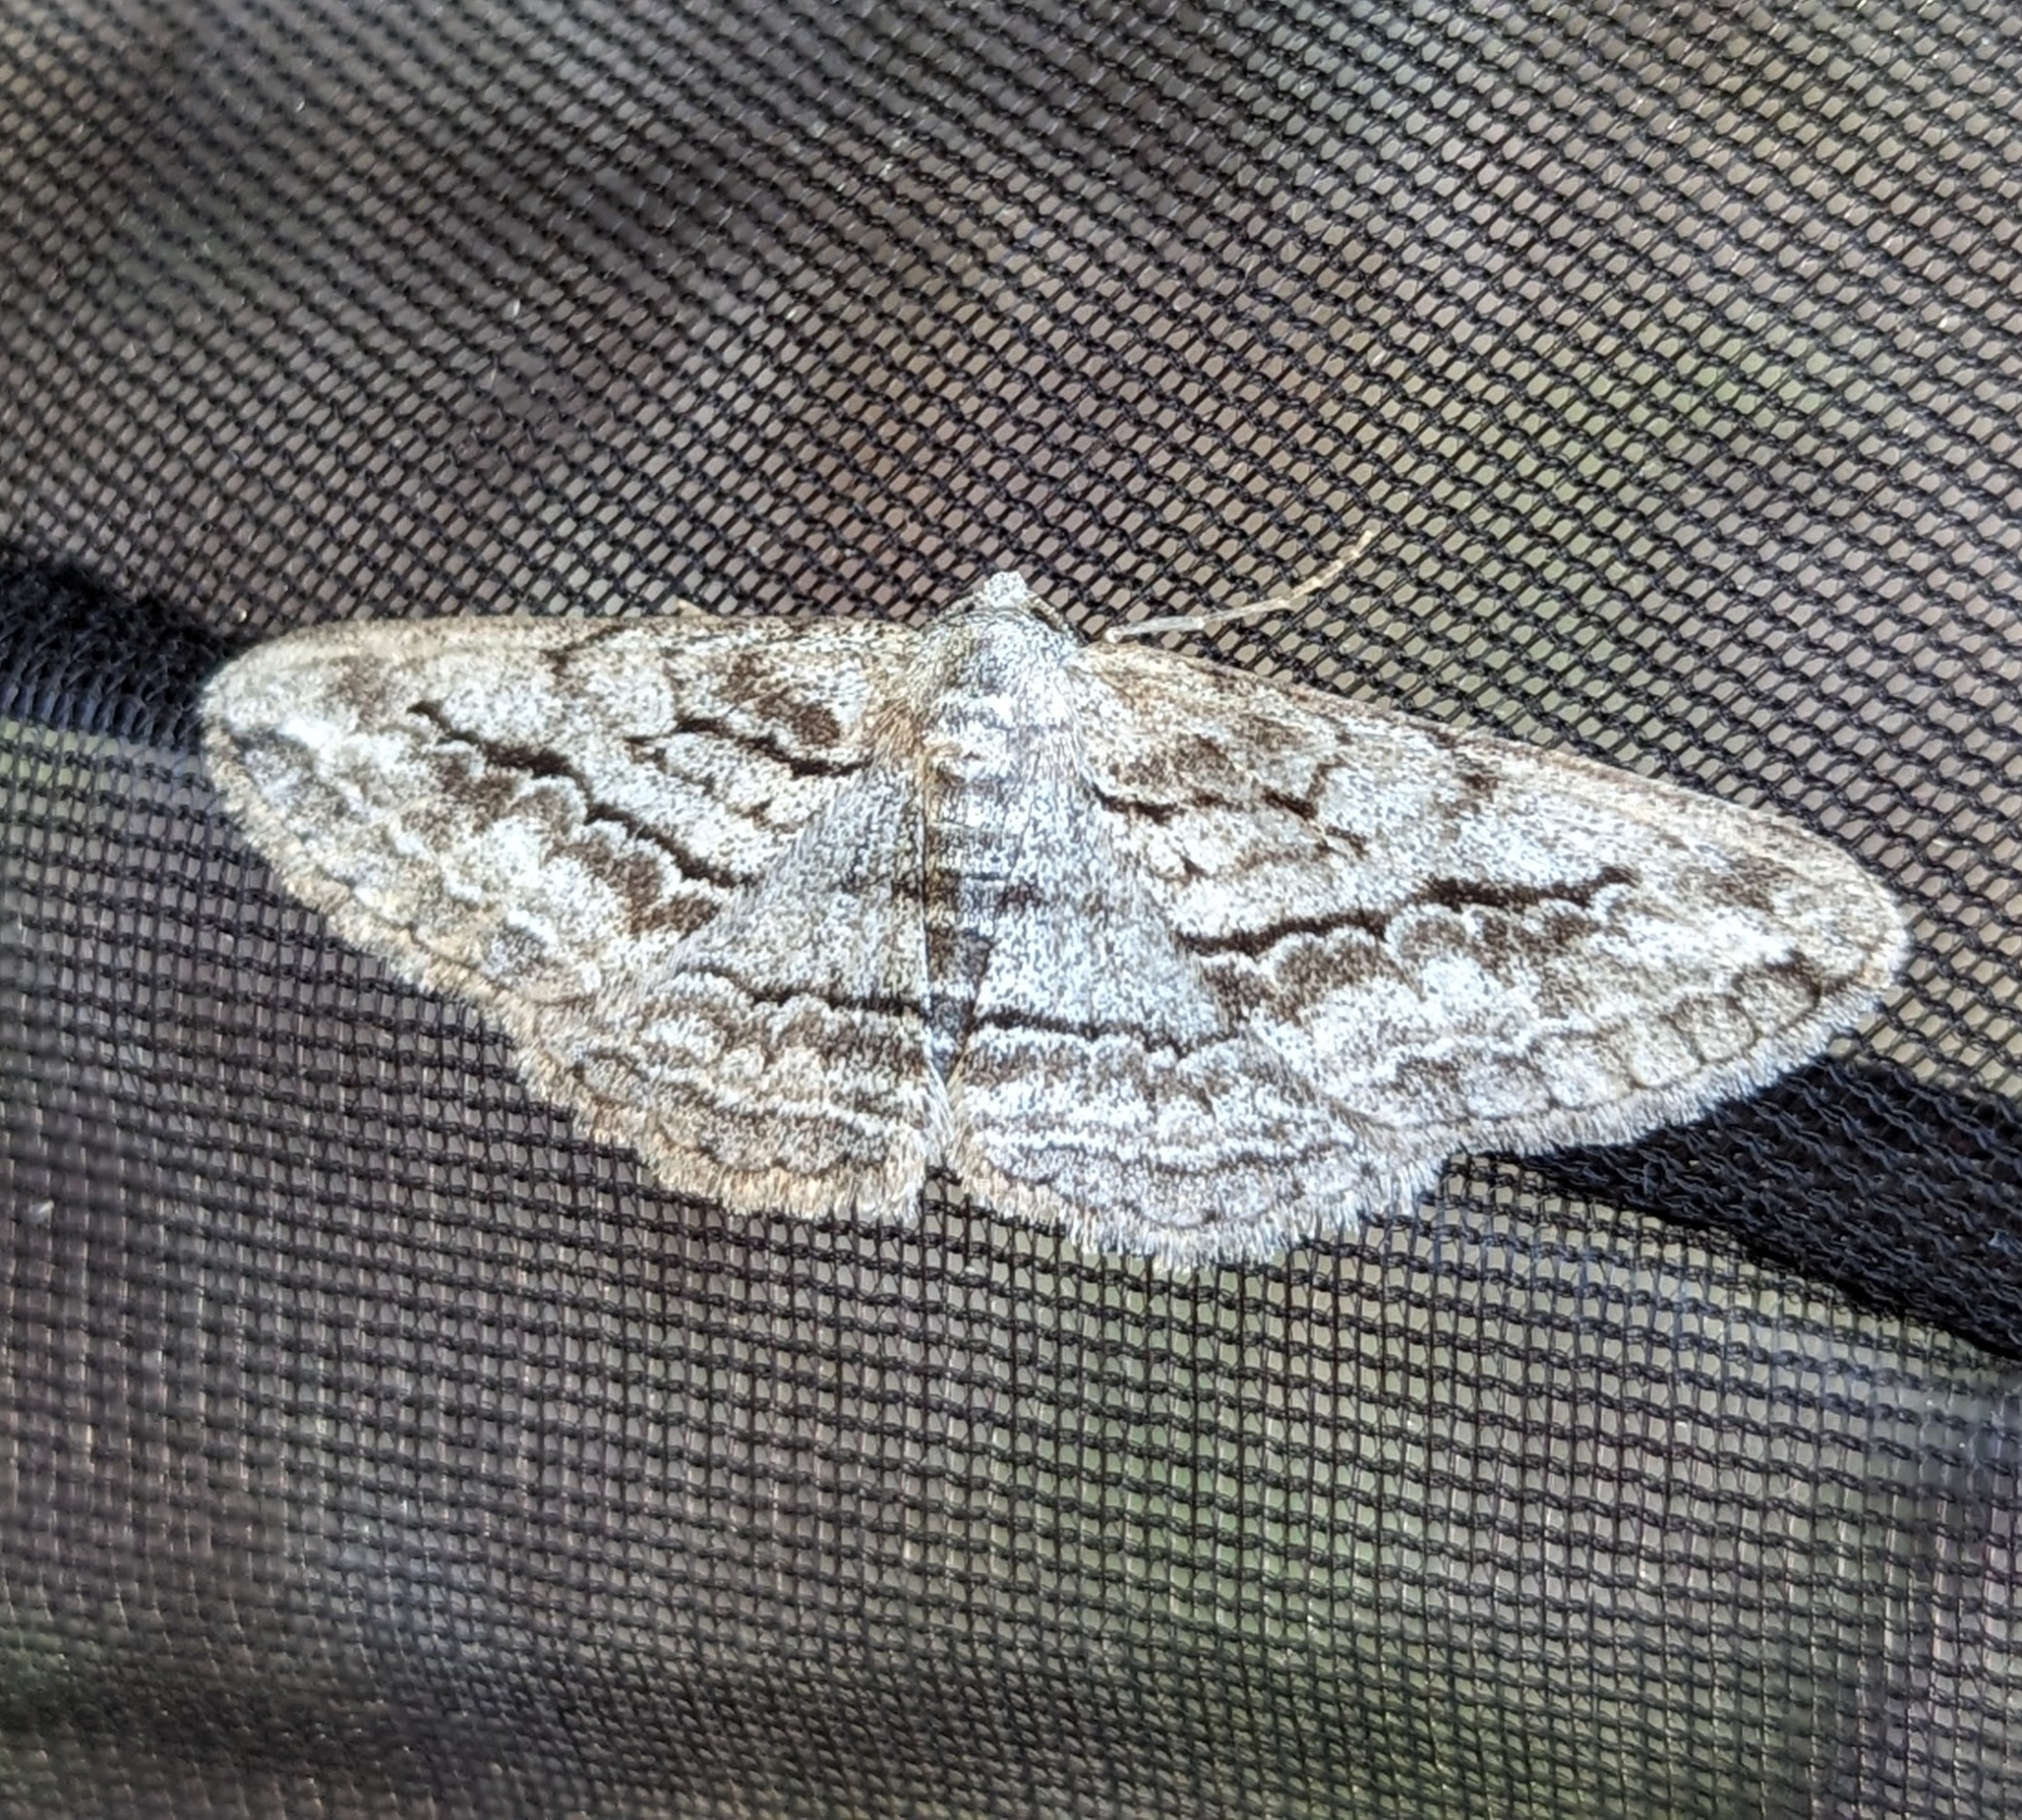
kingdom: Animalia
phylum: Arthropoda
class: Insecta
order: Lepidoptera
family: Geometridae
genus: Stenoporpia
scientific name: Stenoporpia excelsaria
